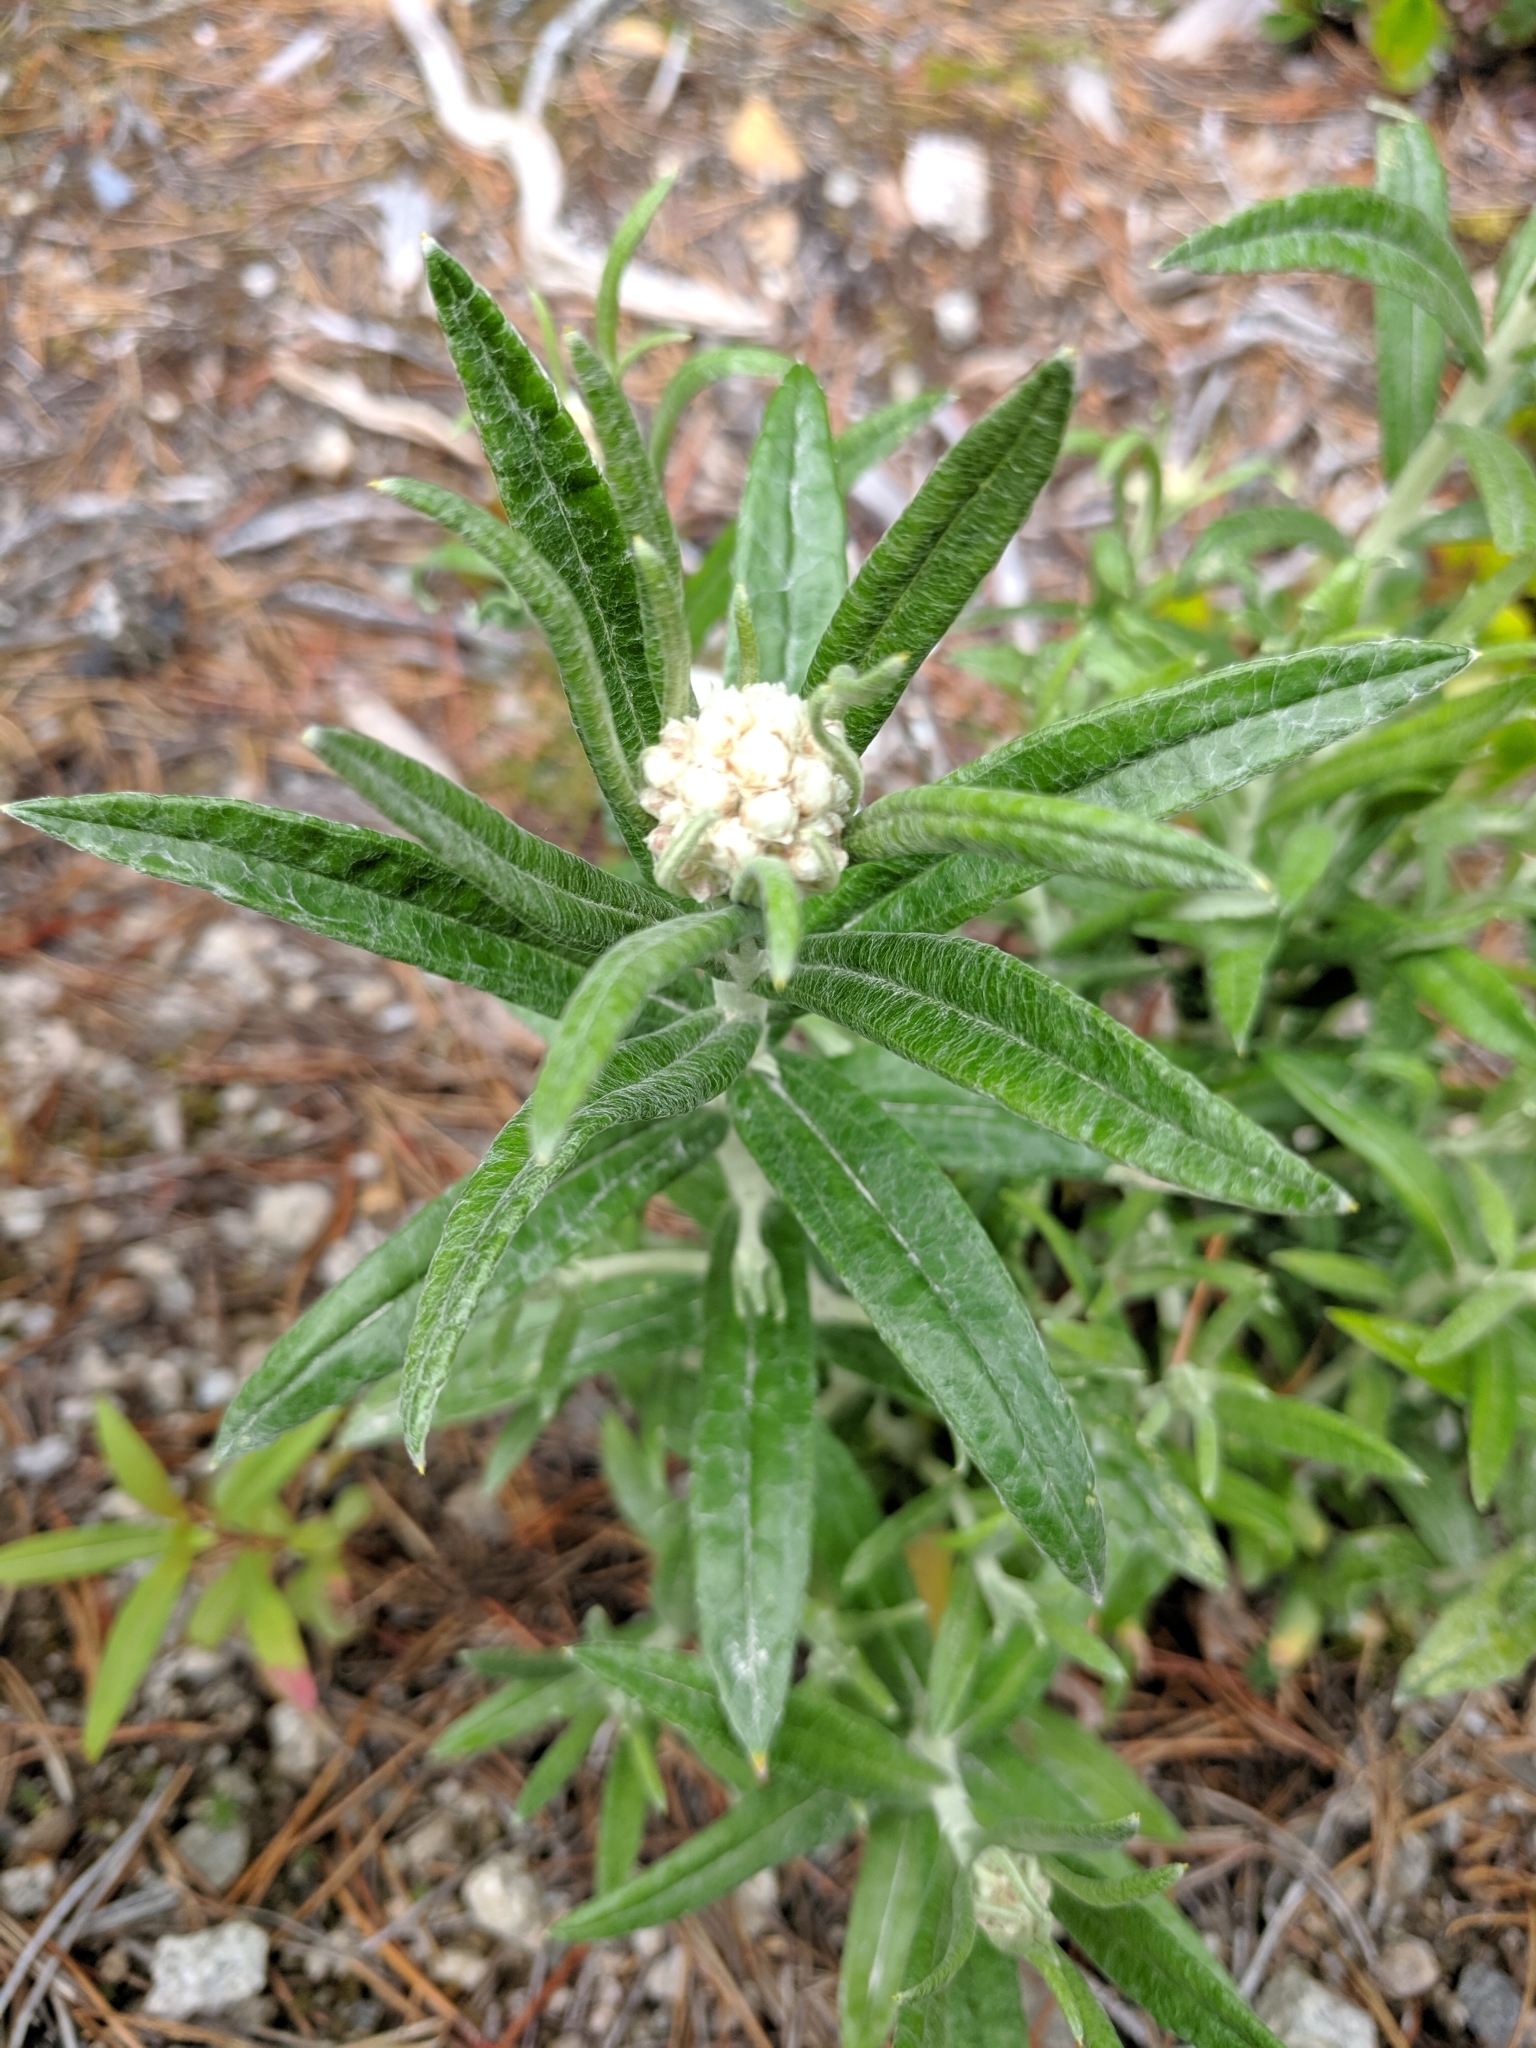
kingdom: Plantae
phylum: Tracheophyta
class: Magnoliopsida
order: Asterales
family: Asteraceae
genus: Anaphalis
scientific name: Anaphalis margaritacea
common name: Pearly everlasting
